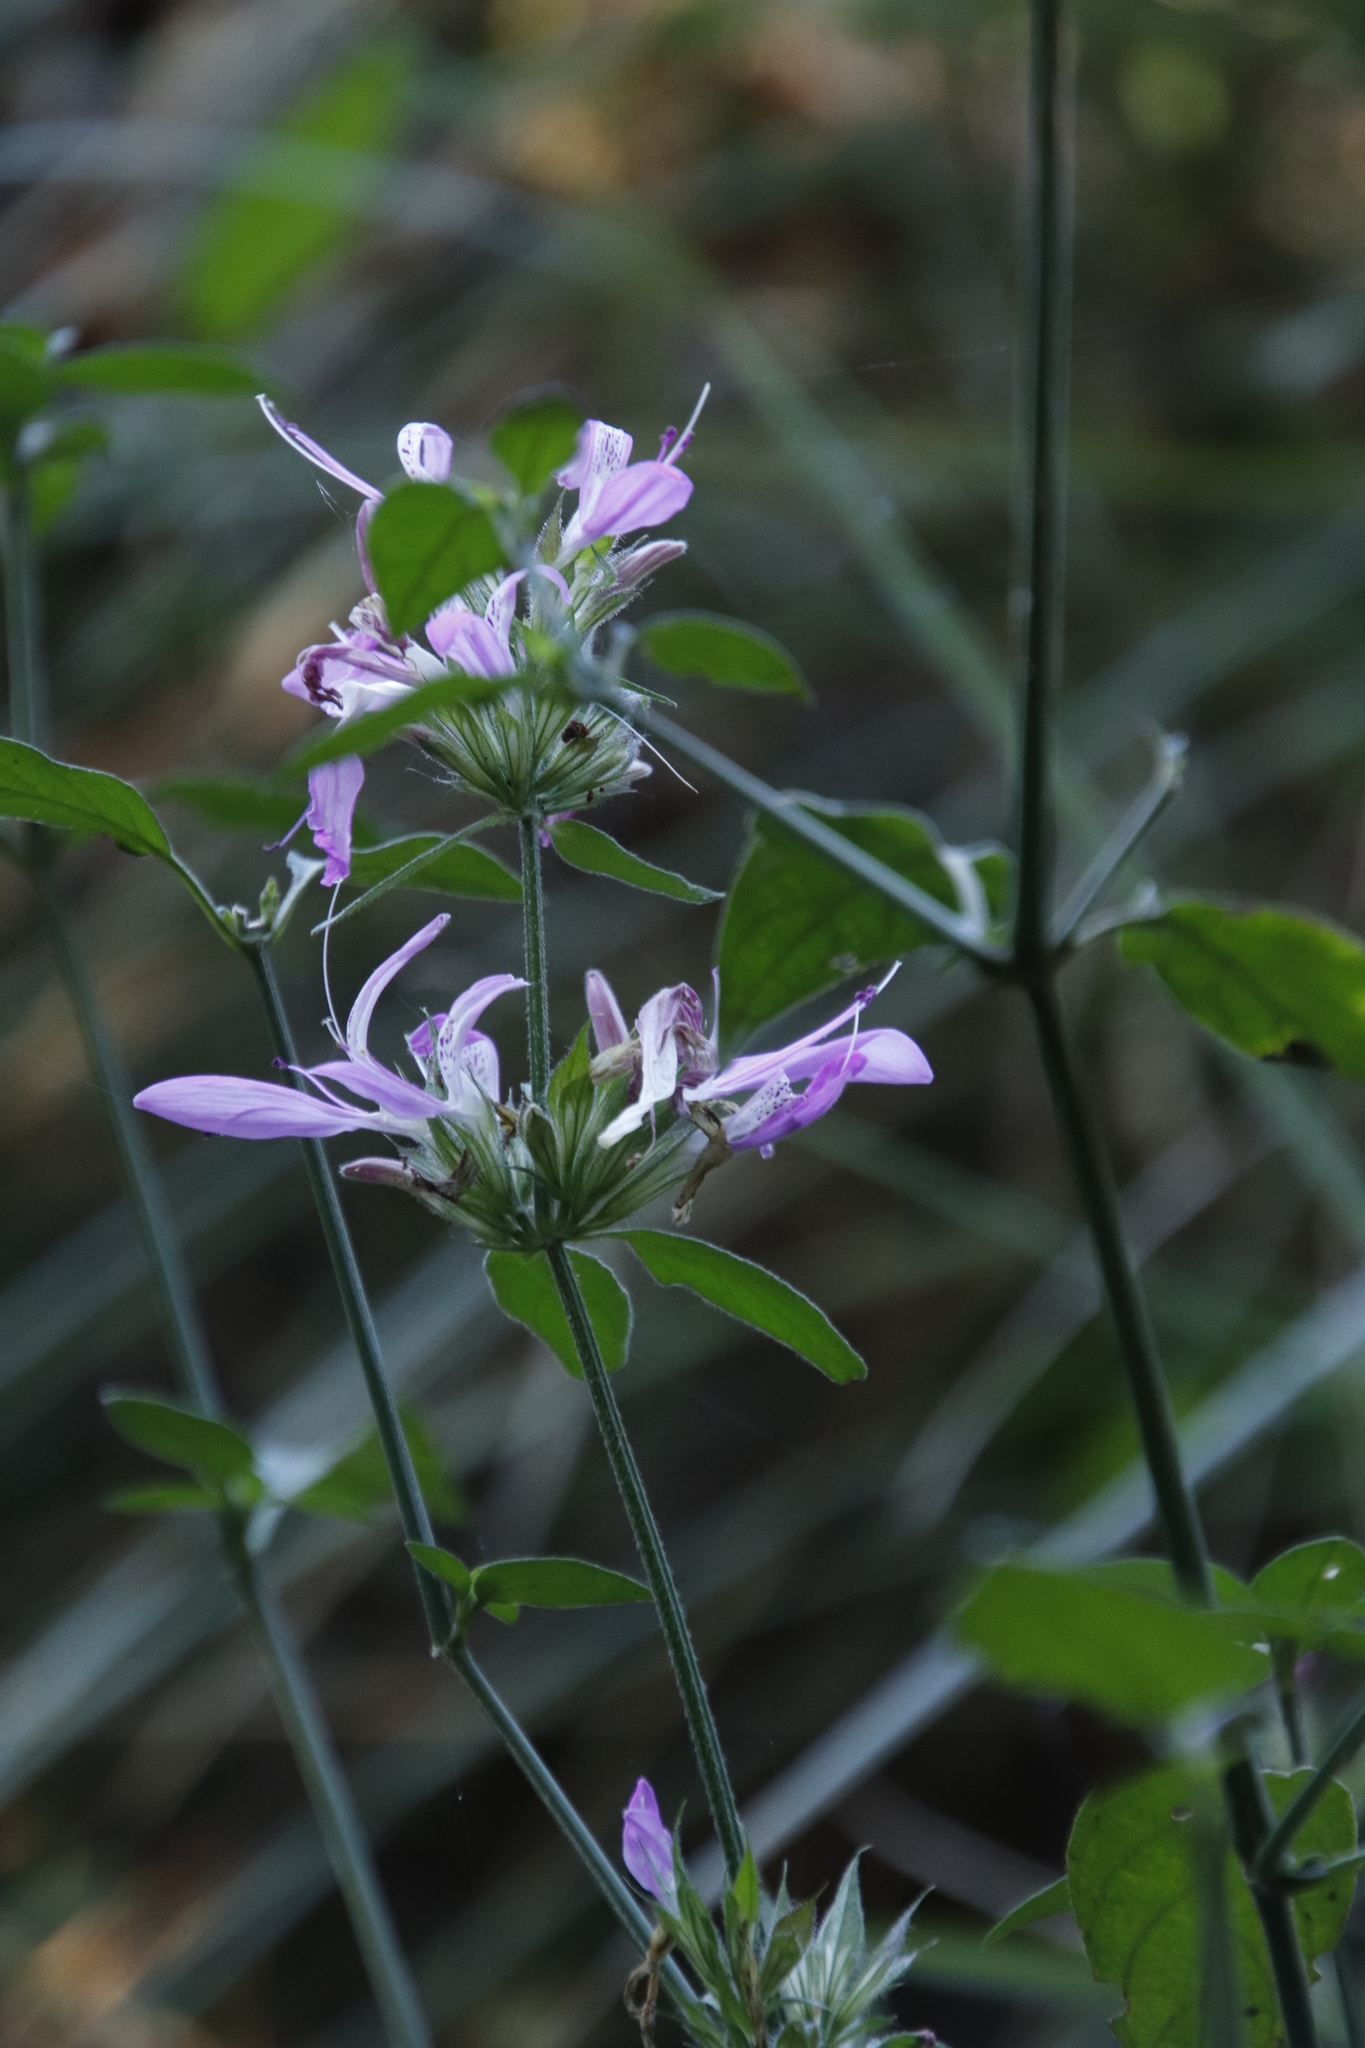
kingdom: Plantae
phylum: Tracheophyta
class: Magnoliopsida
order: Lamiales
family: Acanthaceae
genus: Dicliptera
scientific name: Dicliptera clinopodia
